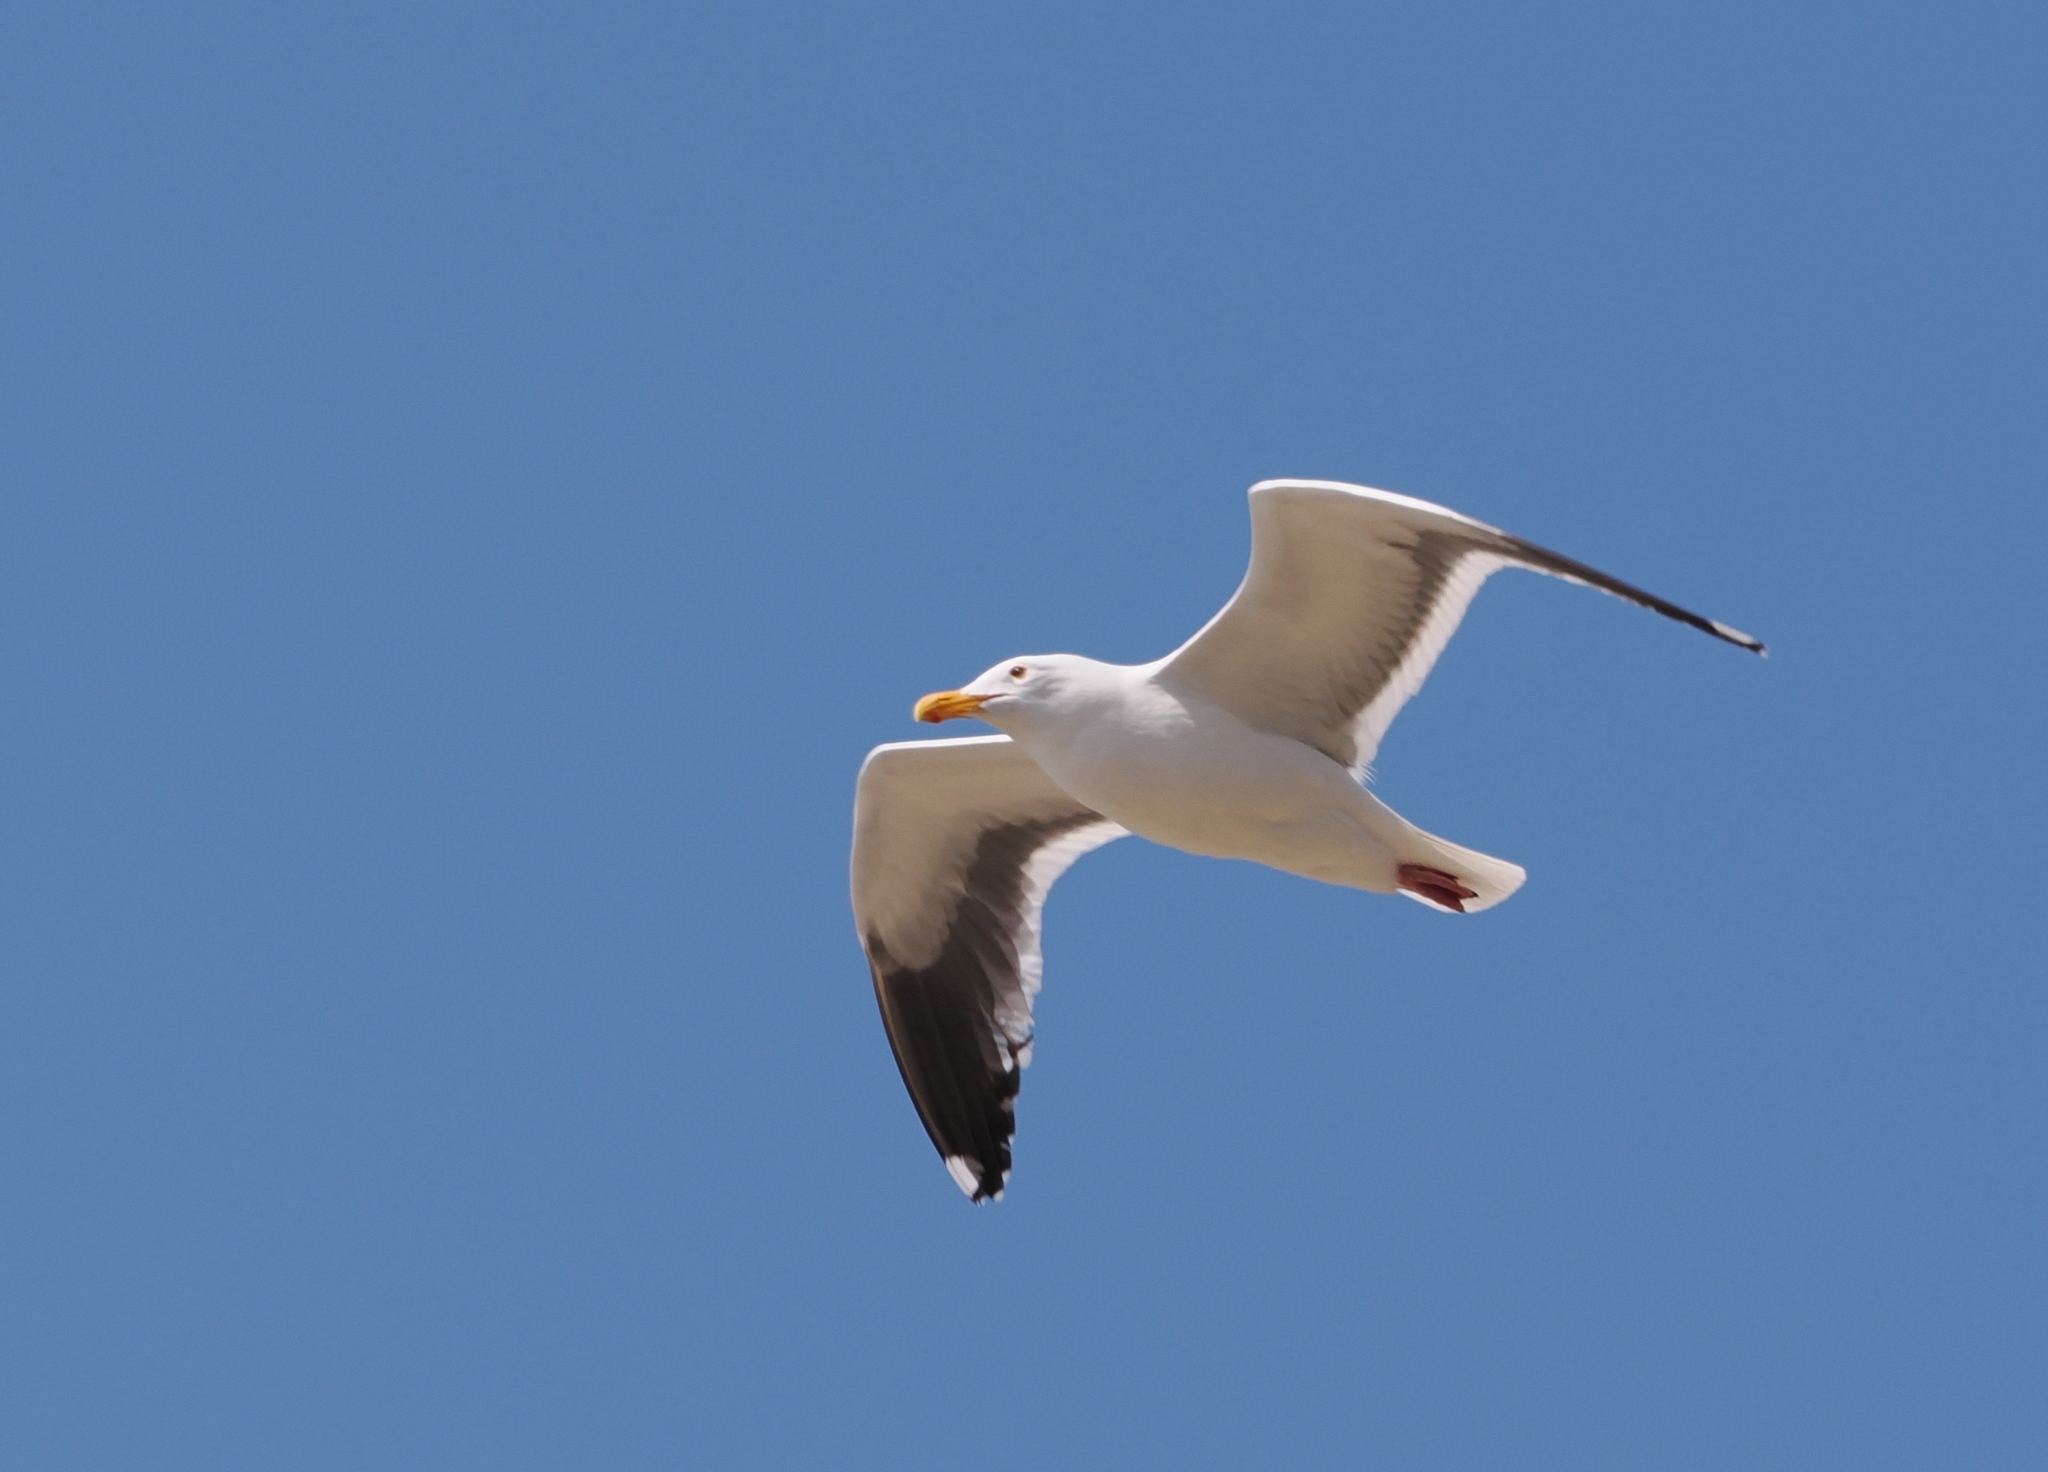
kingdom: Animalia
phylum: Chordata
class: Aves
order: Charadriiformes
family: Laridae
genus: Larus
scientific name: Larus occidentalis
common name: Western gull
